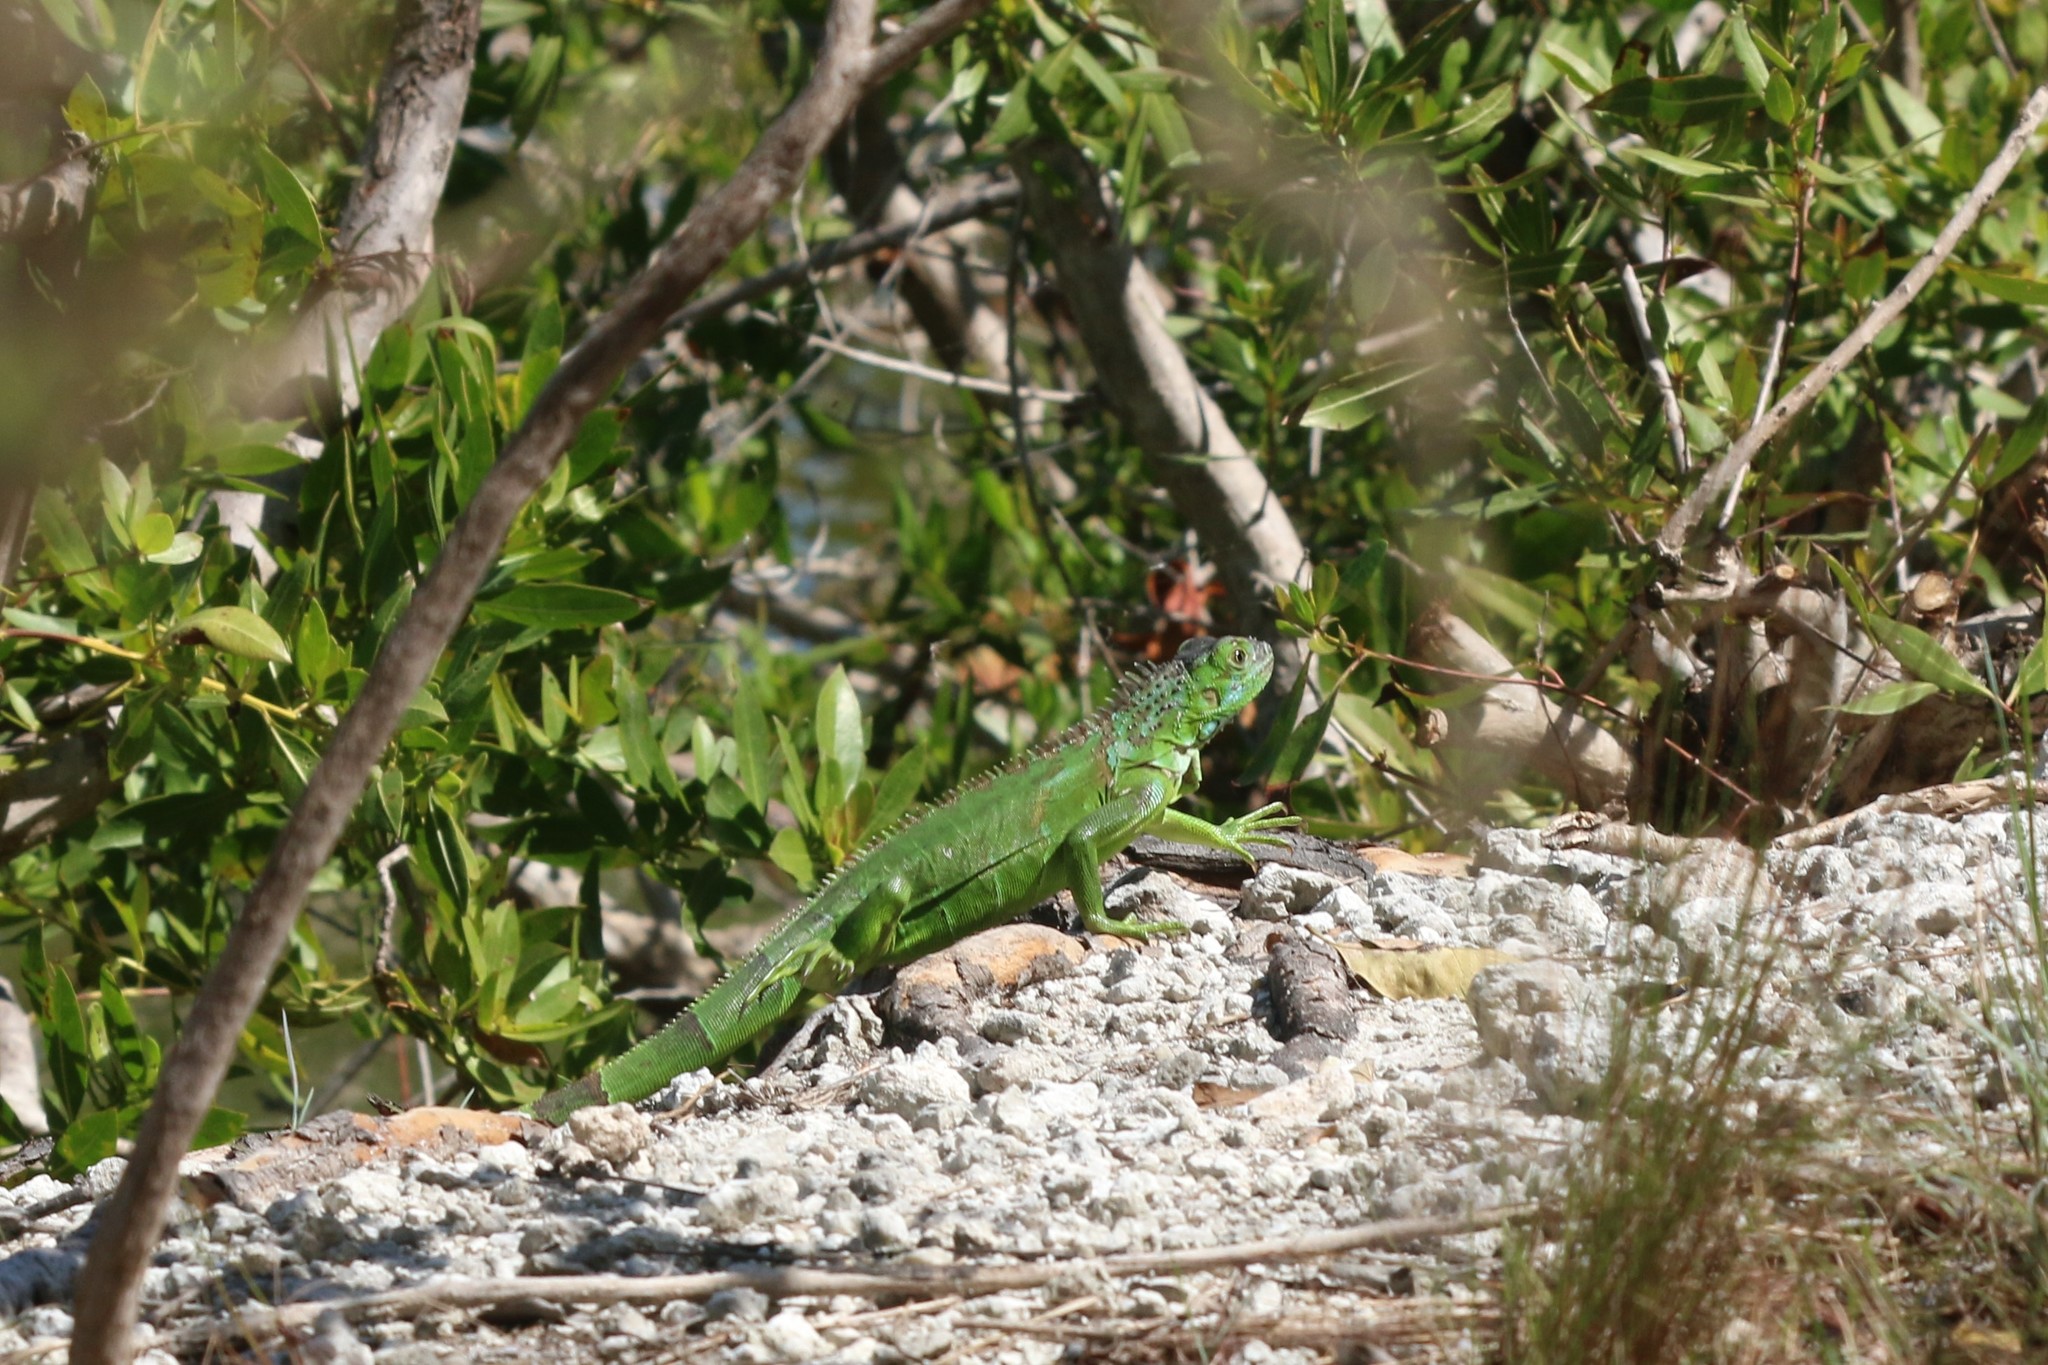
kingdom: Animalia
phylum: Chordata
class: Squamata
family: Iguanidae
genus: Iguana
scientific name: Iguana iguana
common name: Green iguana
